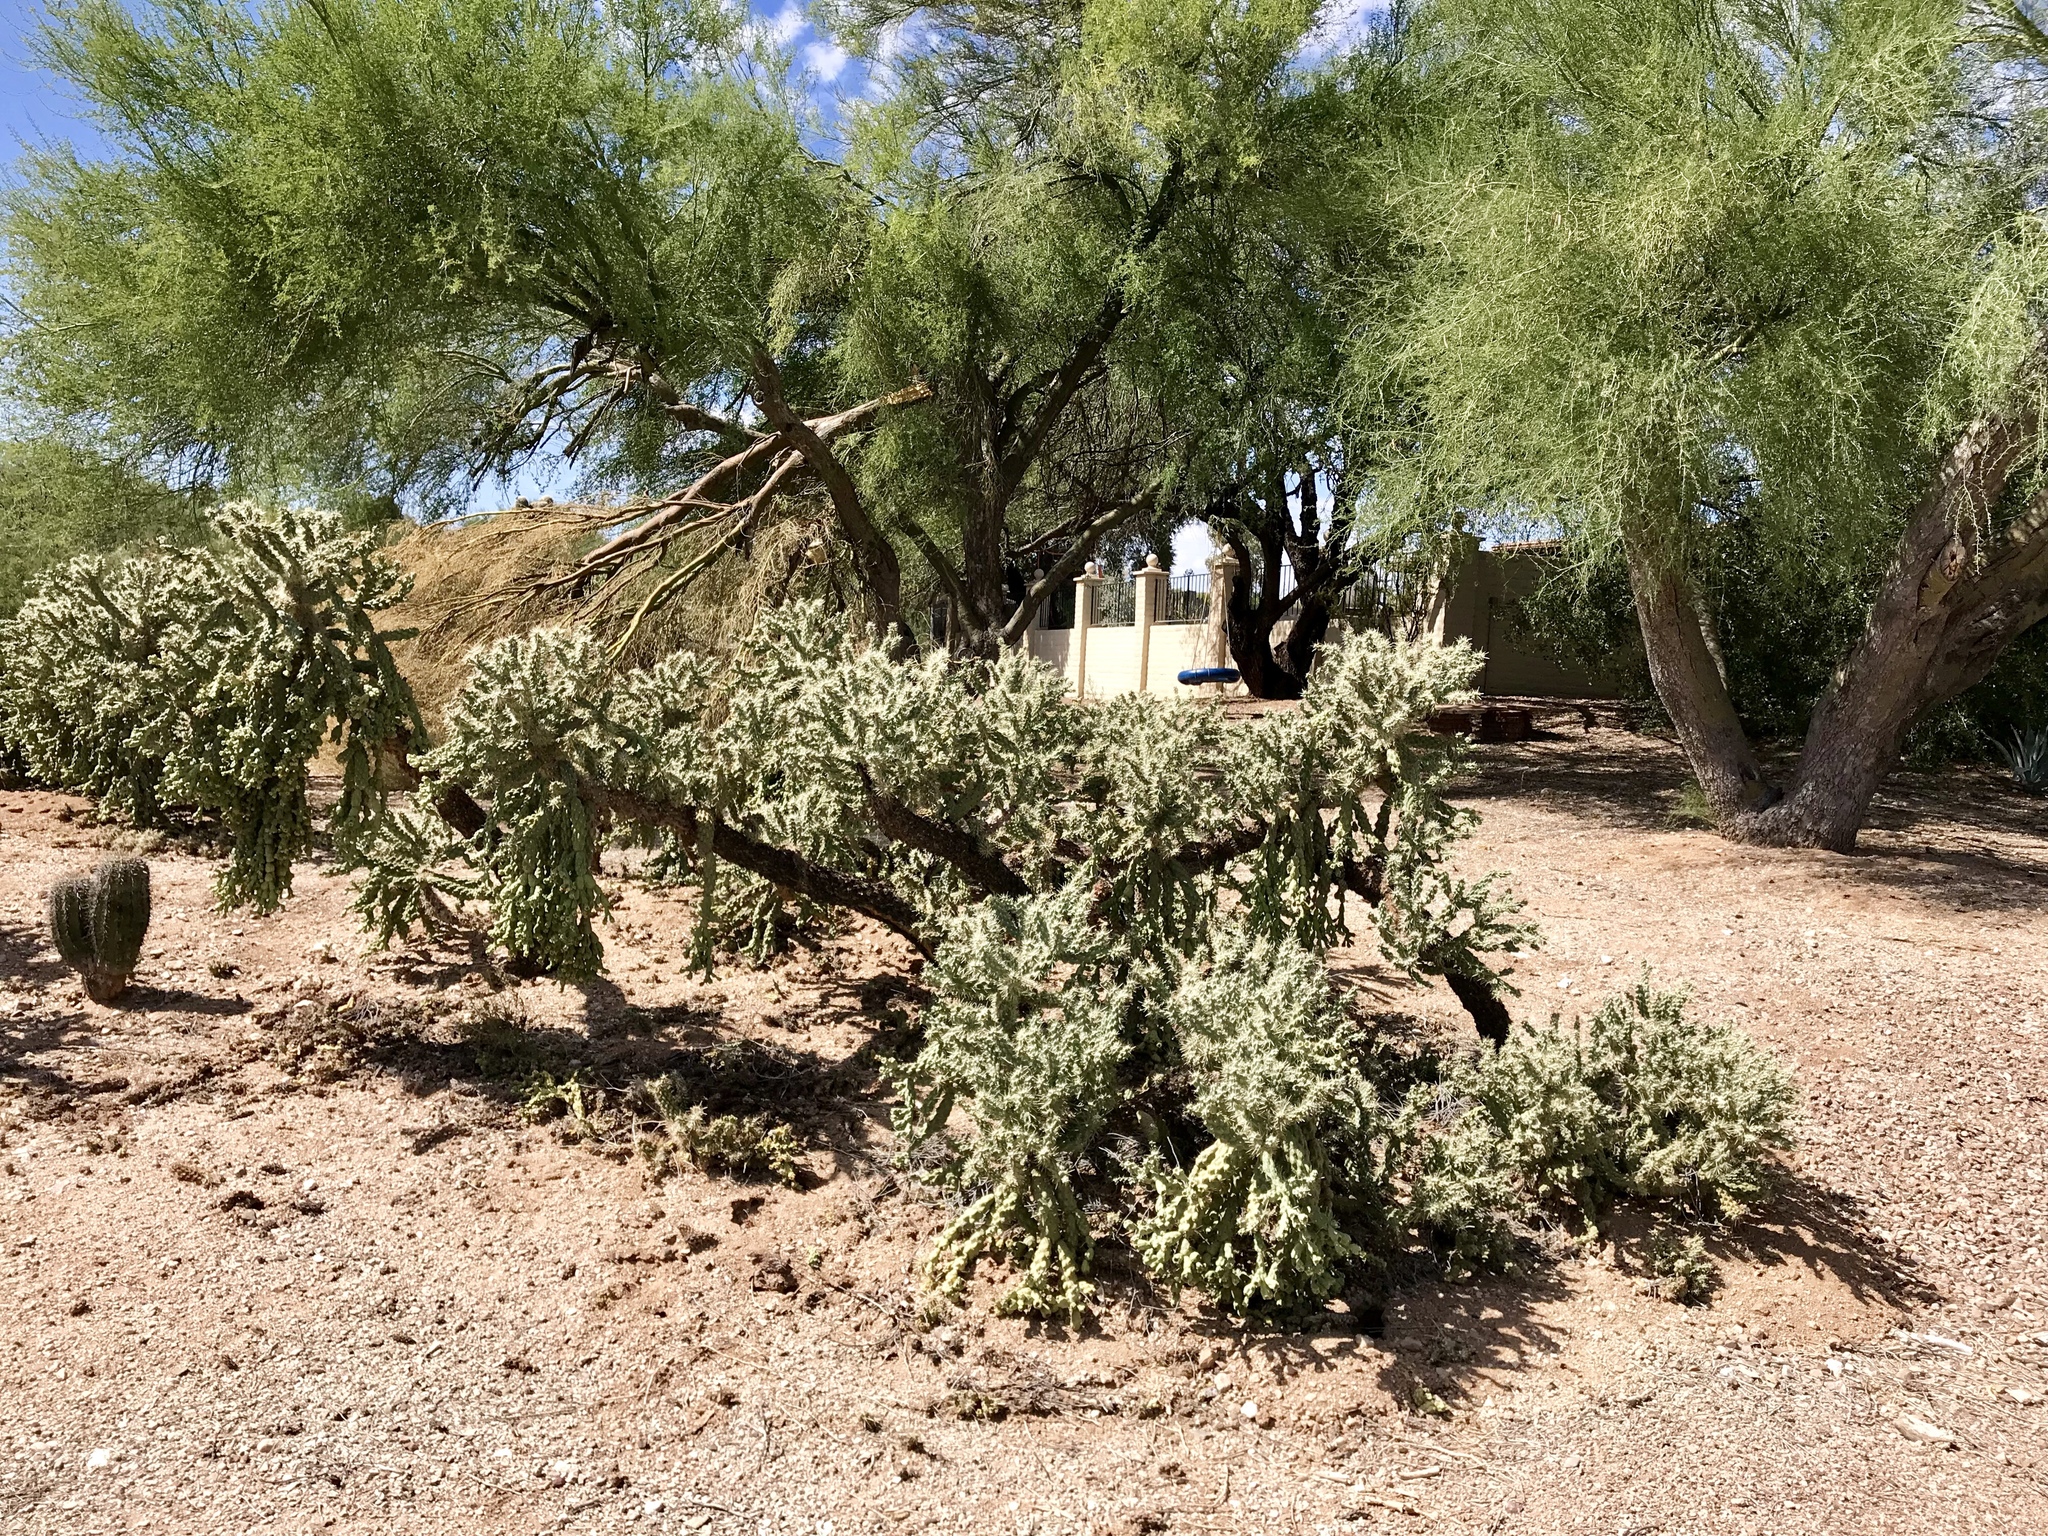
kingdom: Plantae
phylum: Tracheophyta
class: Magnoliopsida
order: Caryophyllales
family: Cactaceae
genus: Cylindropuntia
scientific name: Cylindropuntia fulgida
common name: Jumping cholla
